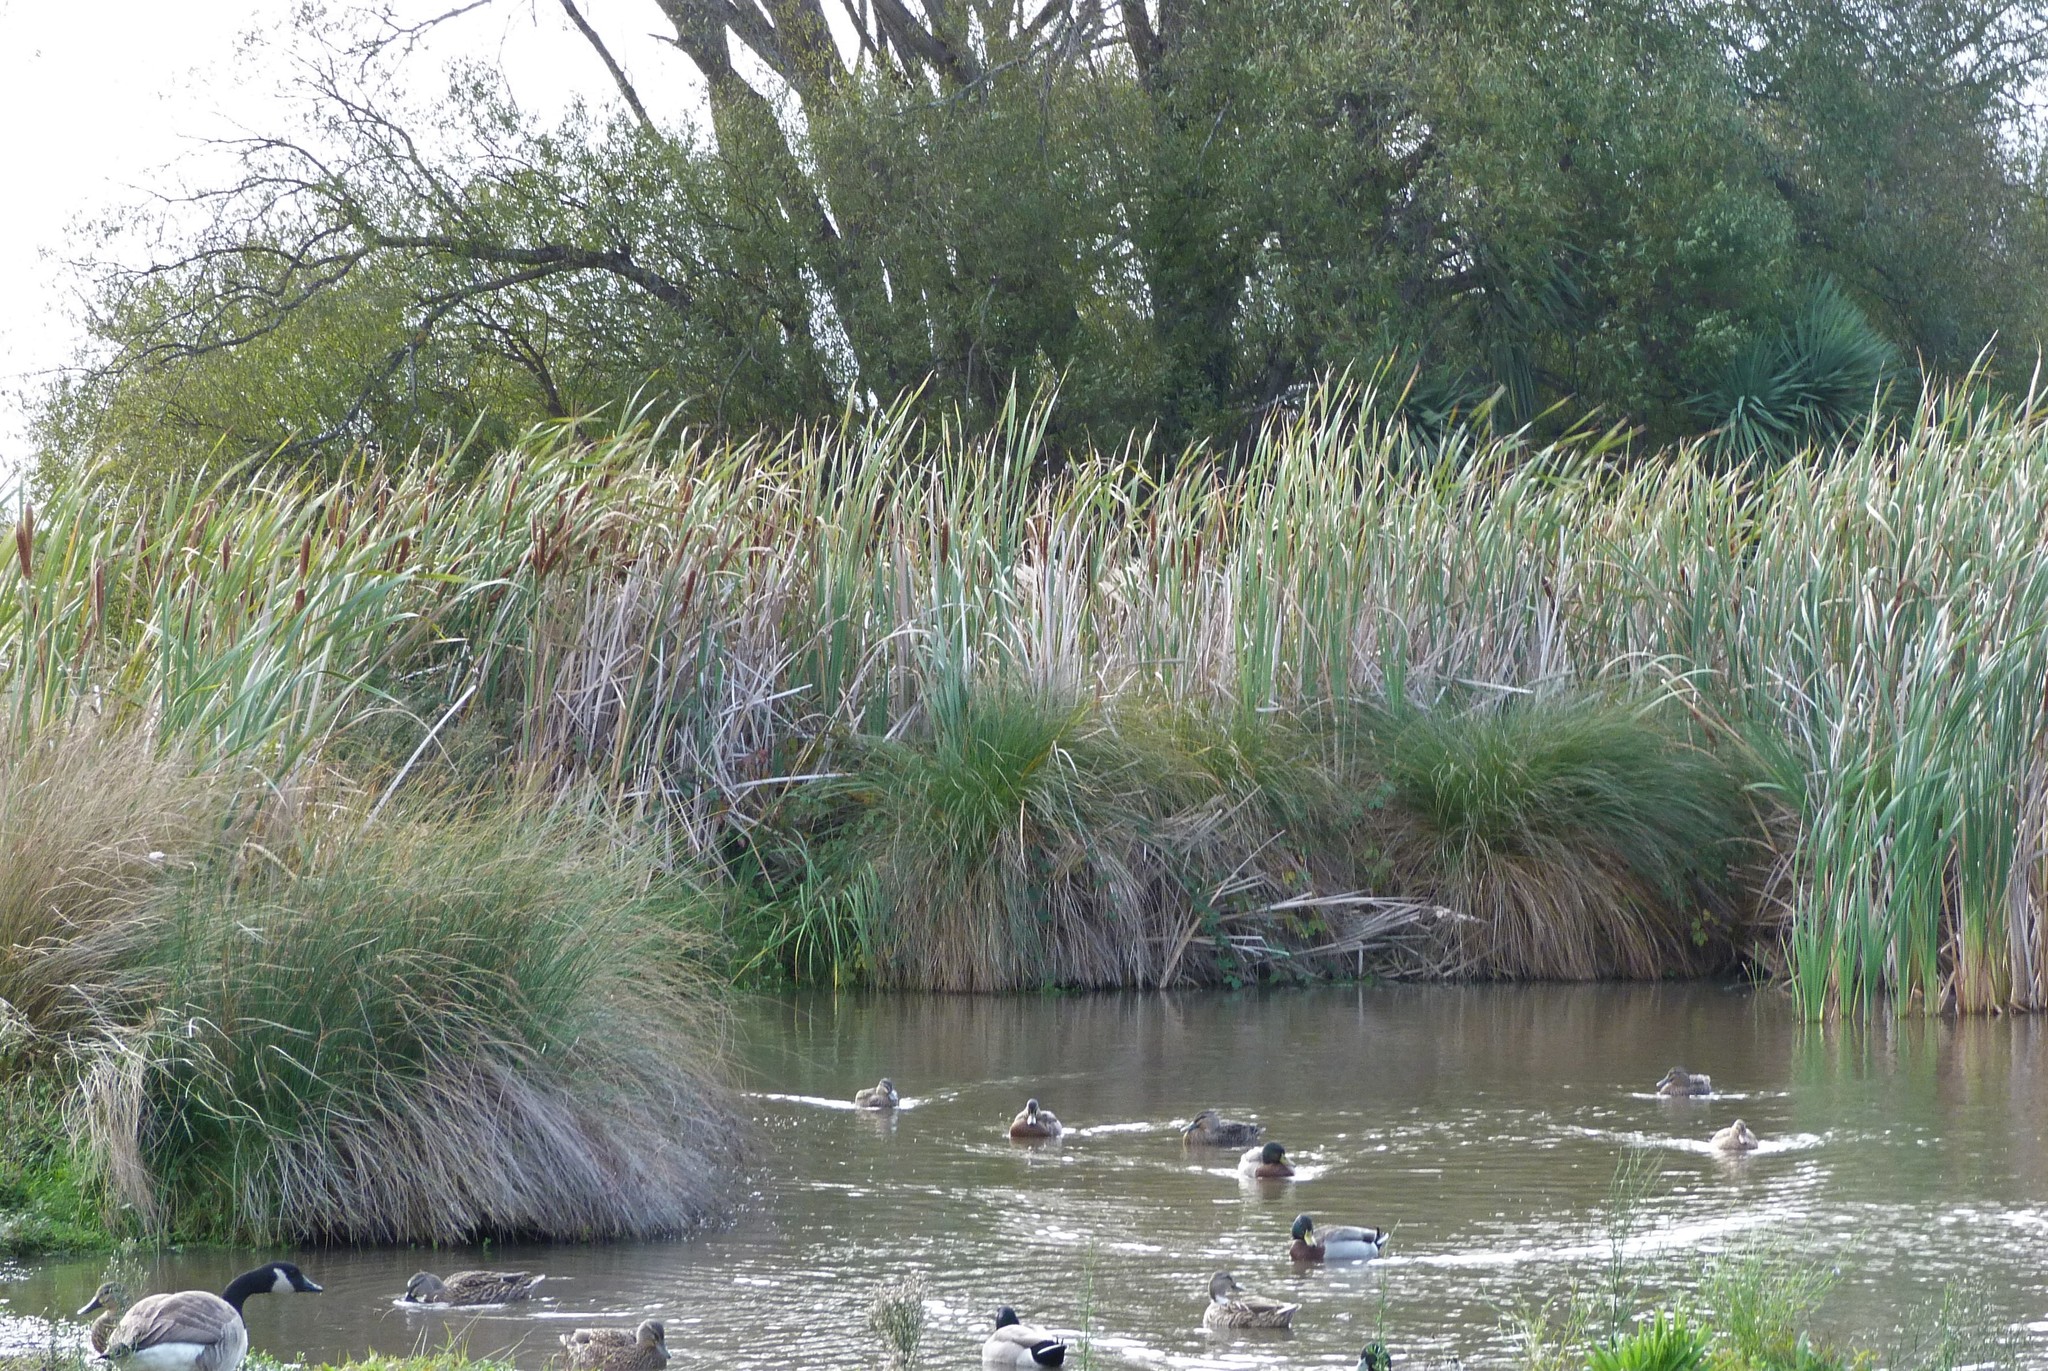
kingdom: Plantae
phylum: Tracheophyta
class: Liliopsida
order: Poales
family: Typhaceae
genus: Typha
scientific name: Typha orientalis
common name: Bullrush
